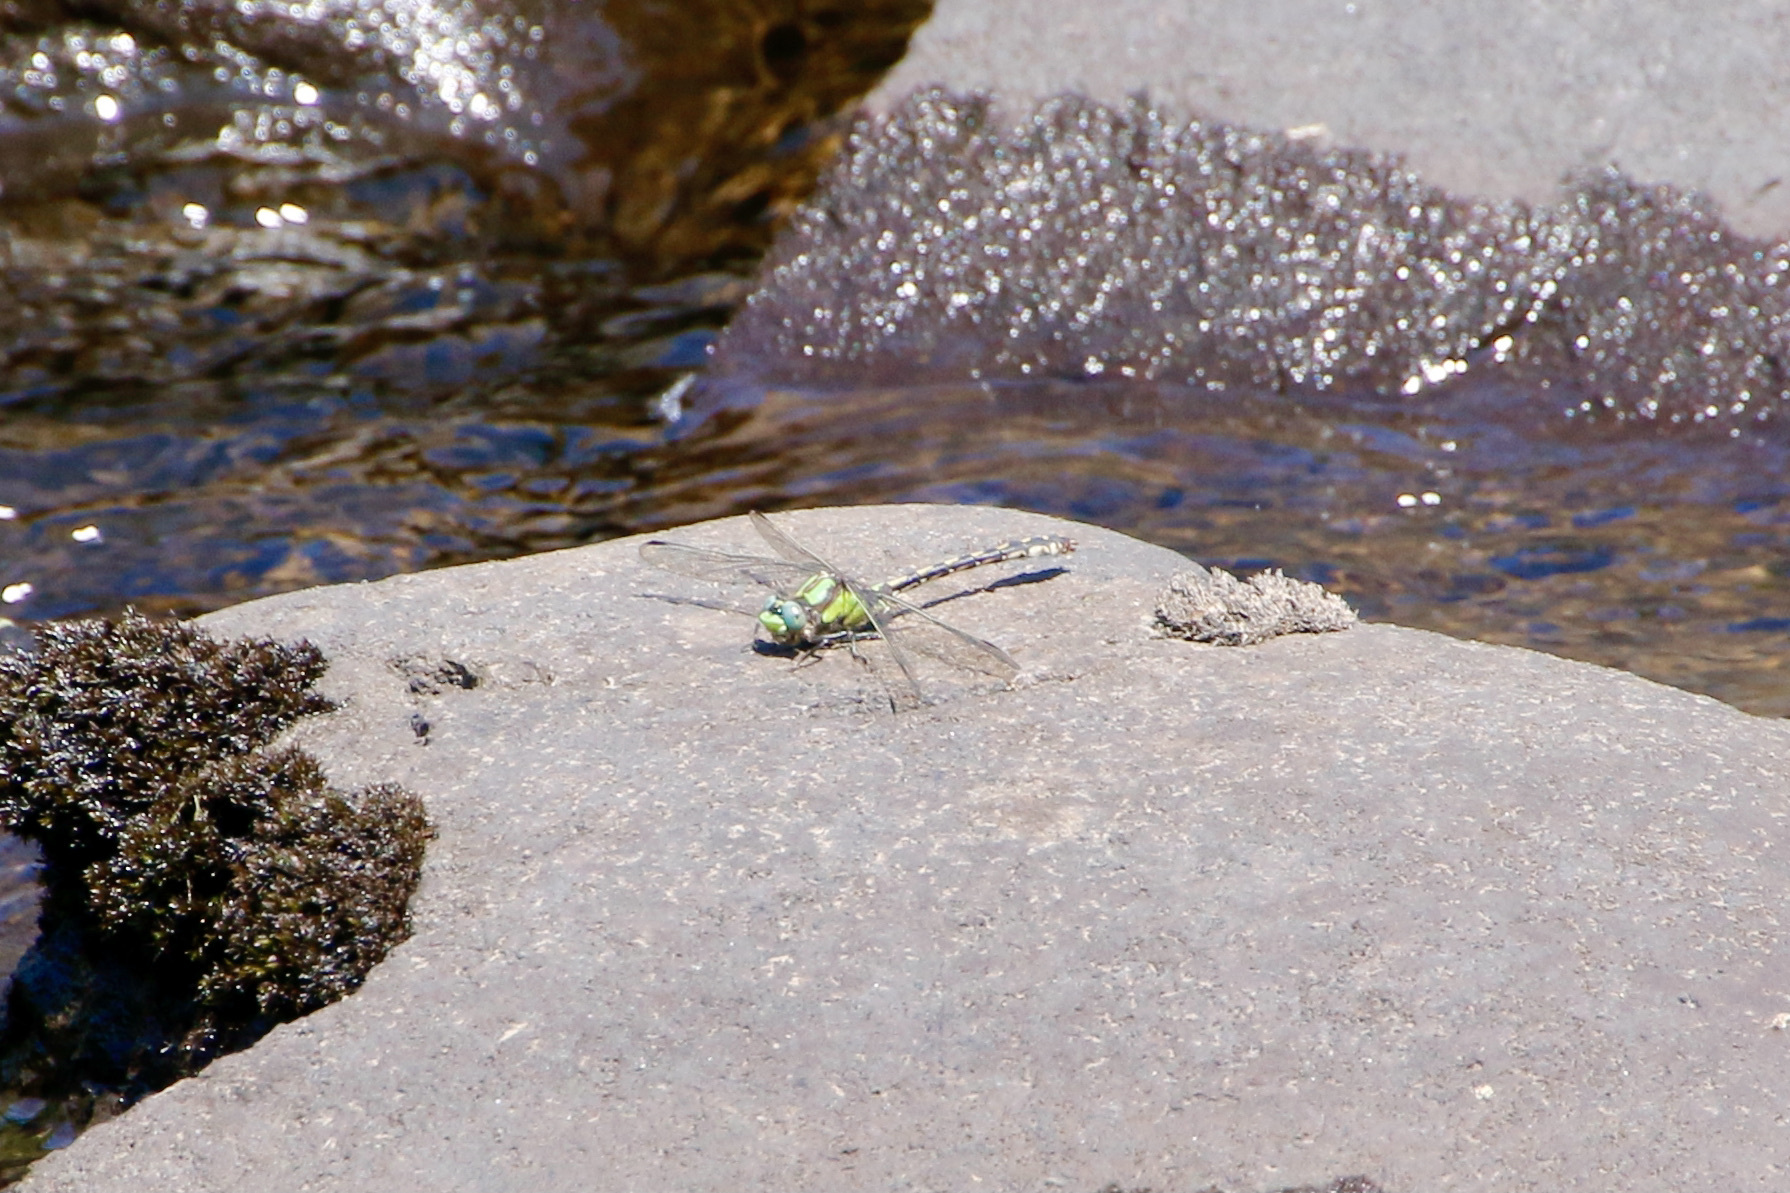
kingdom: Animalia
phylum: Arthropoda
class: Insecta
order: Odonata
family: Gomphidae
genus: Ophiogomphus
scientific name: Ophiogomphus carolus
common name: Riffle snaketail
